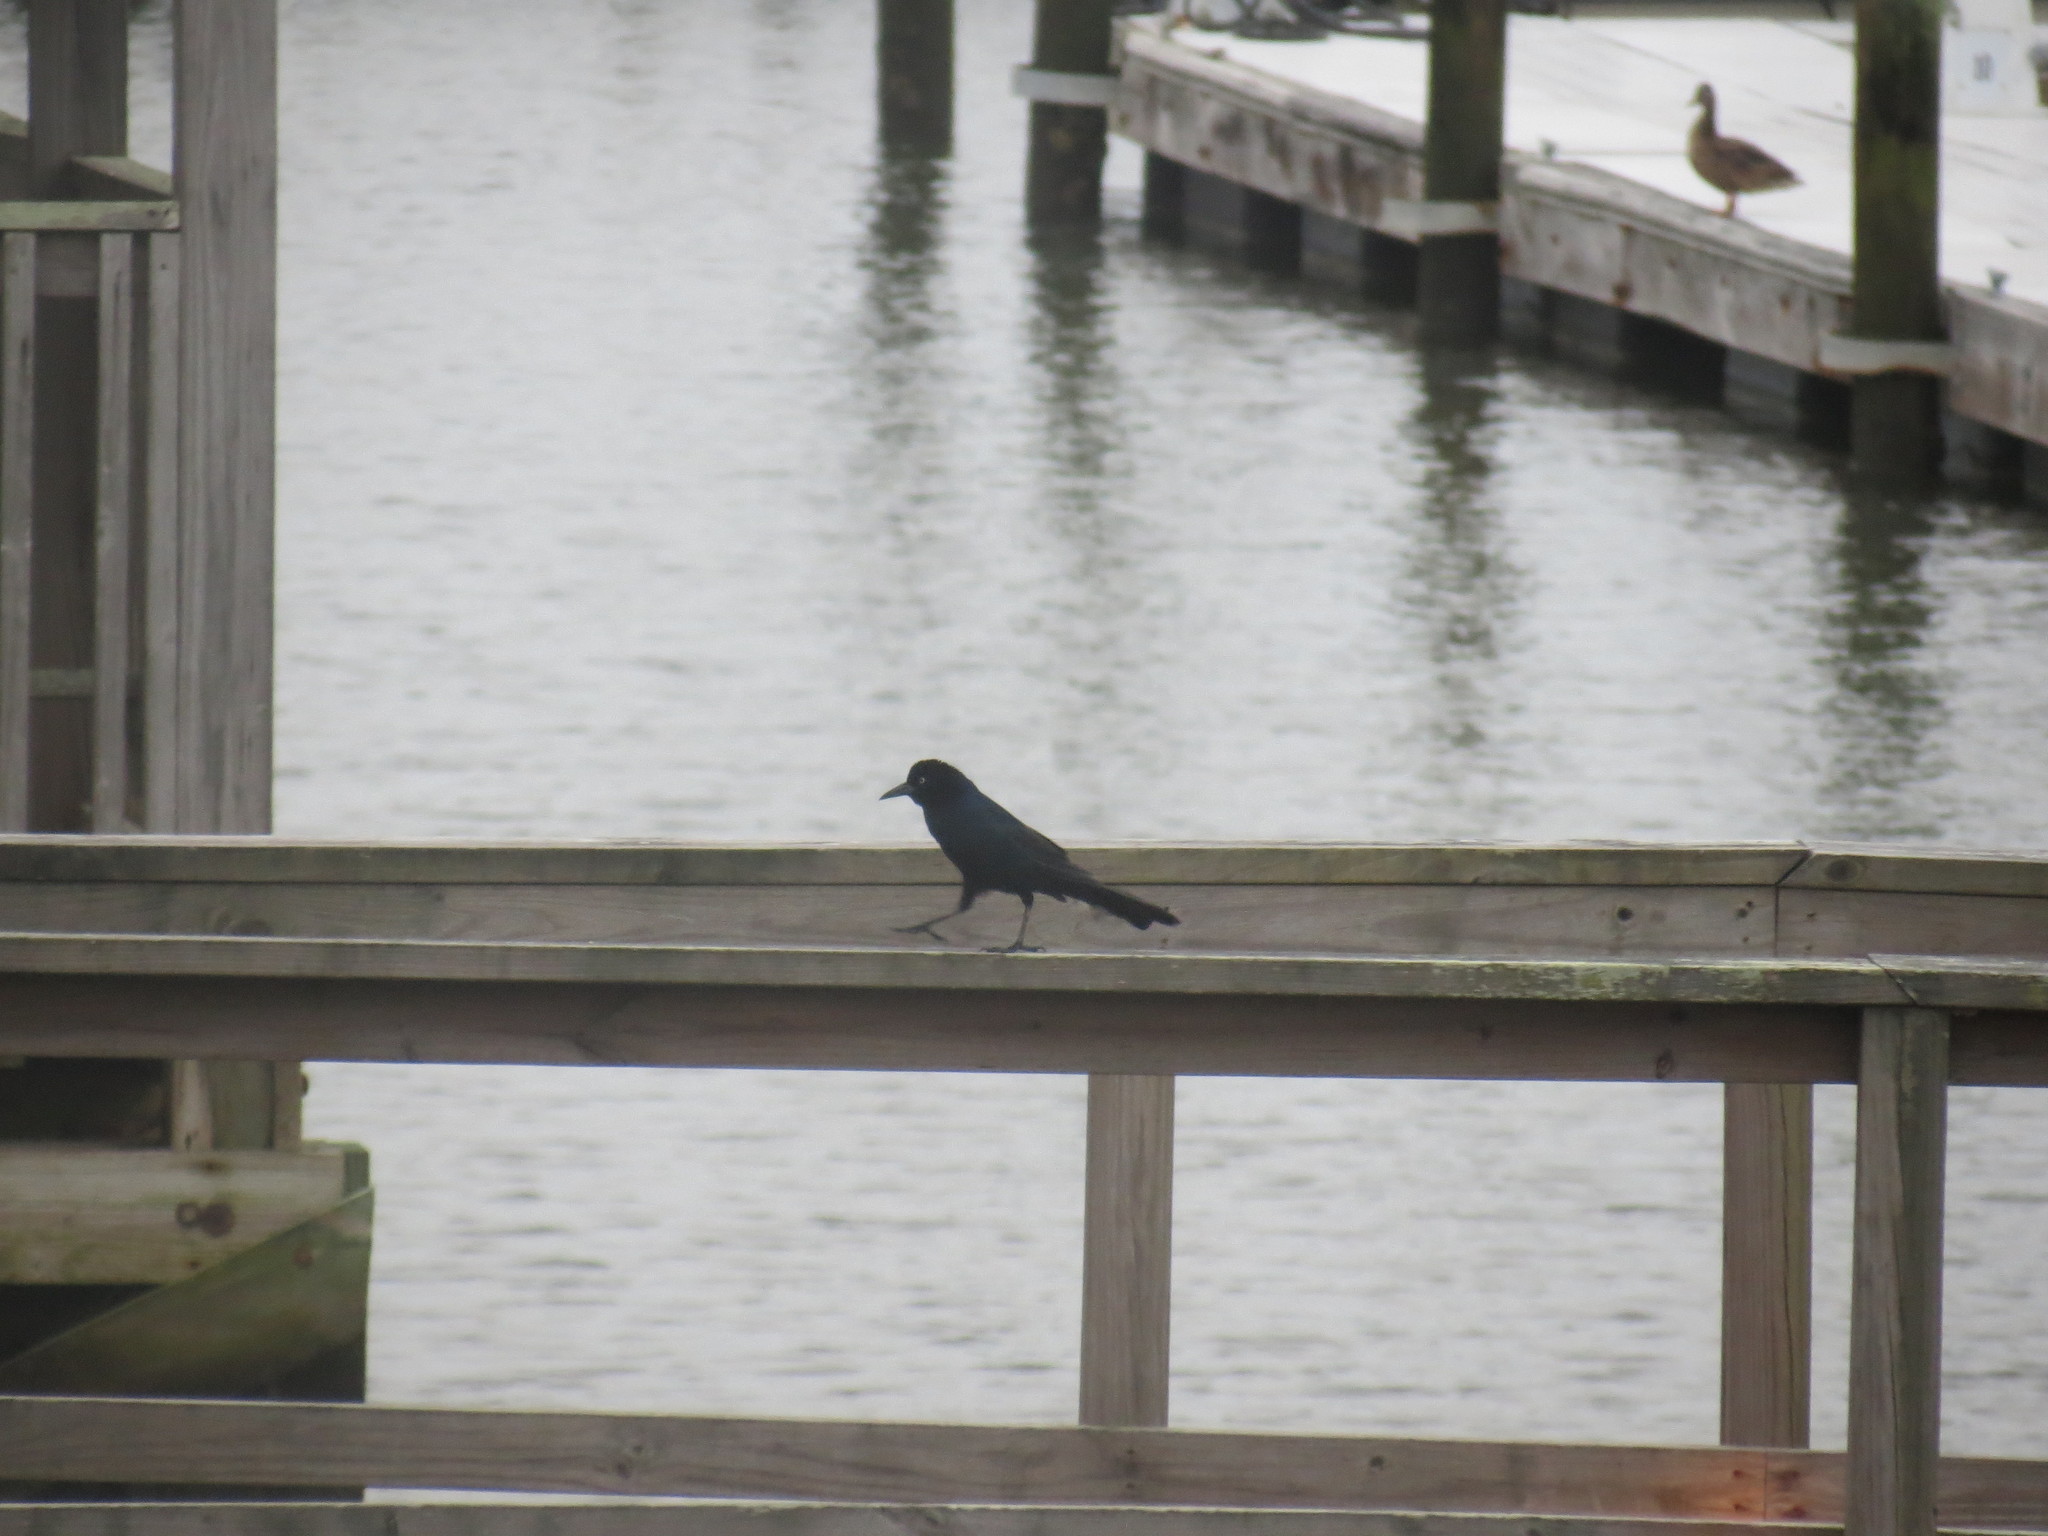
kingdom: Animalia
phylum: Chordata
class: Aves
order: Passeriformes
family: Icteridae
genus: Quiscalus
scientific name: Quiscalus major
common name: Boat-tailed grackle
